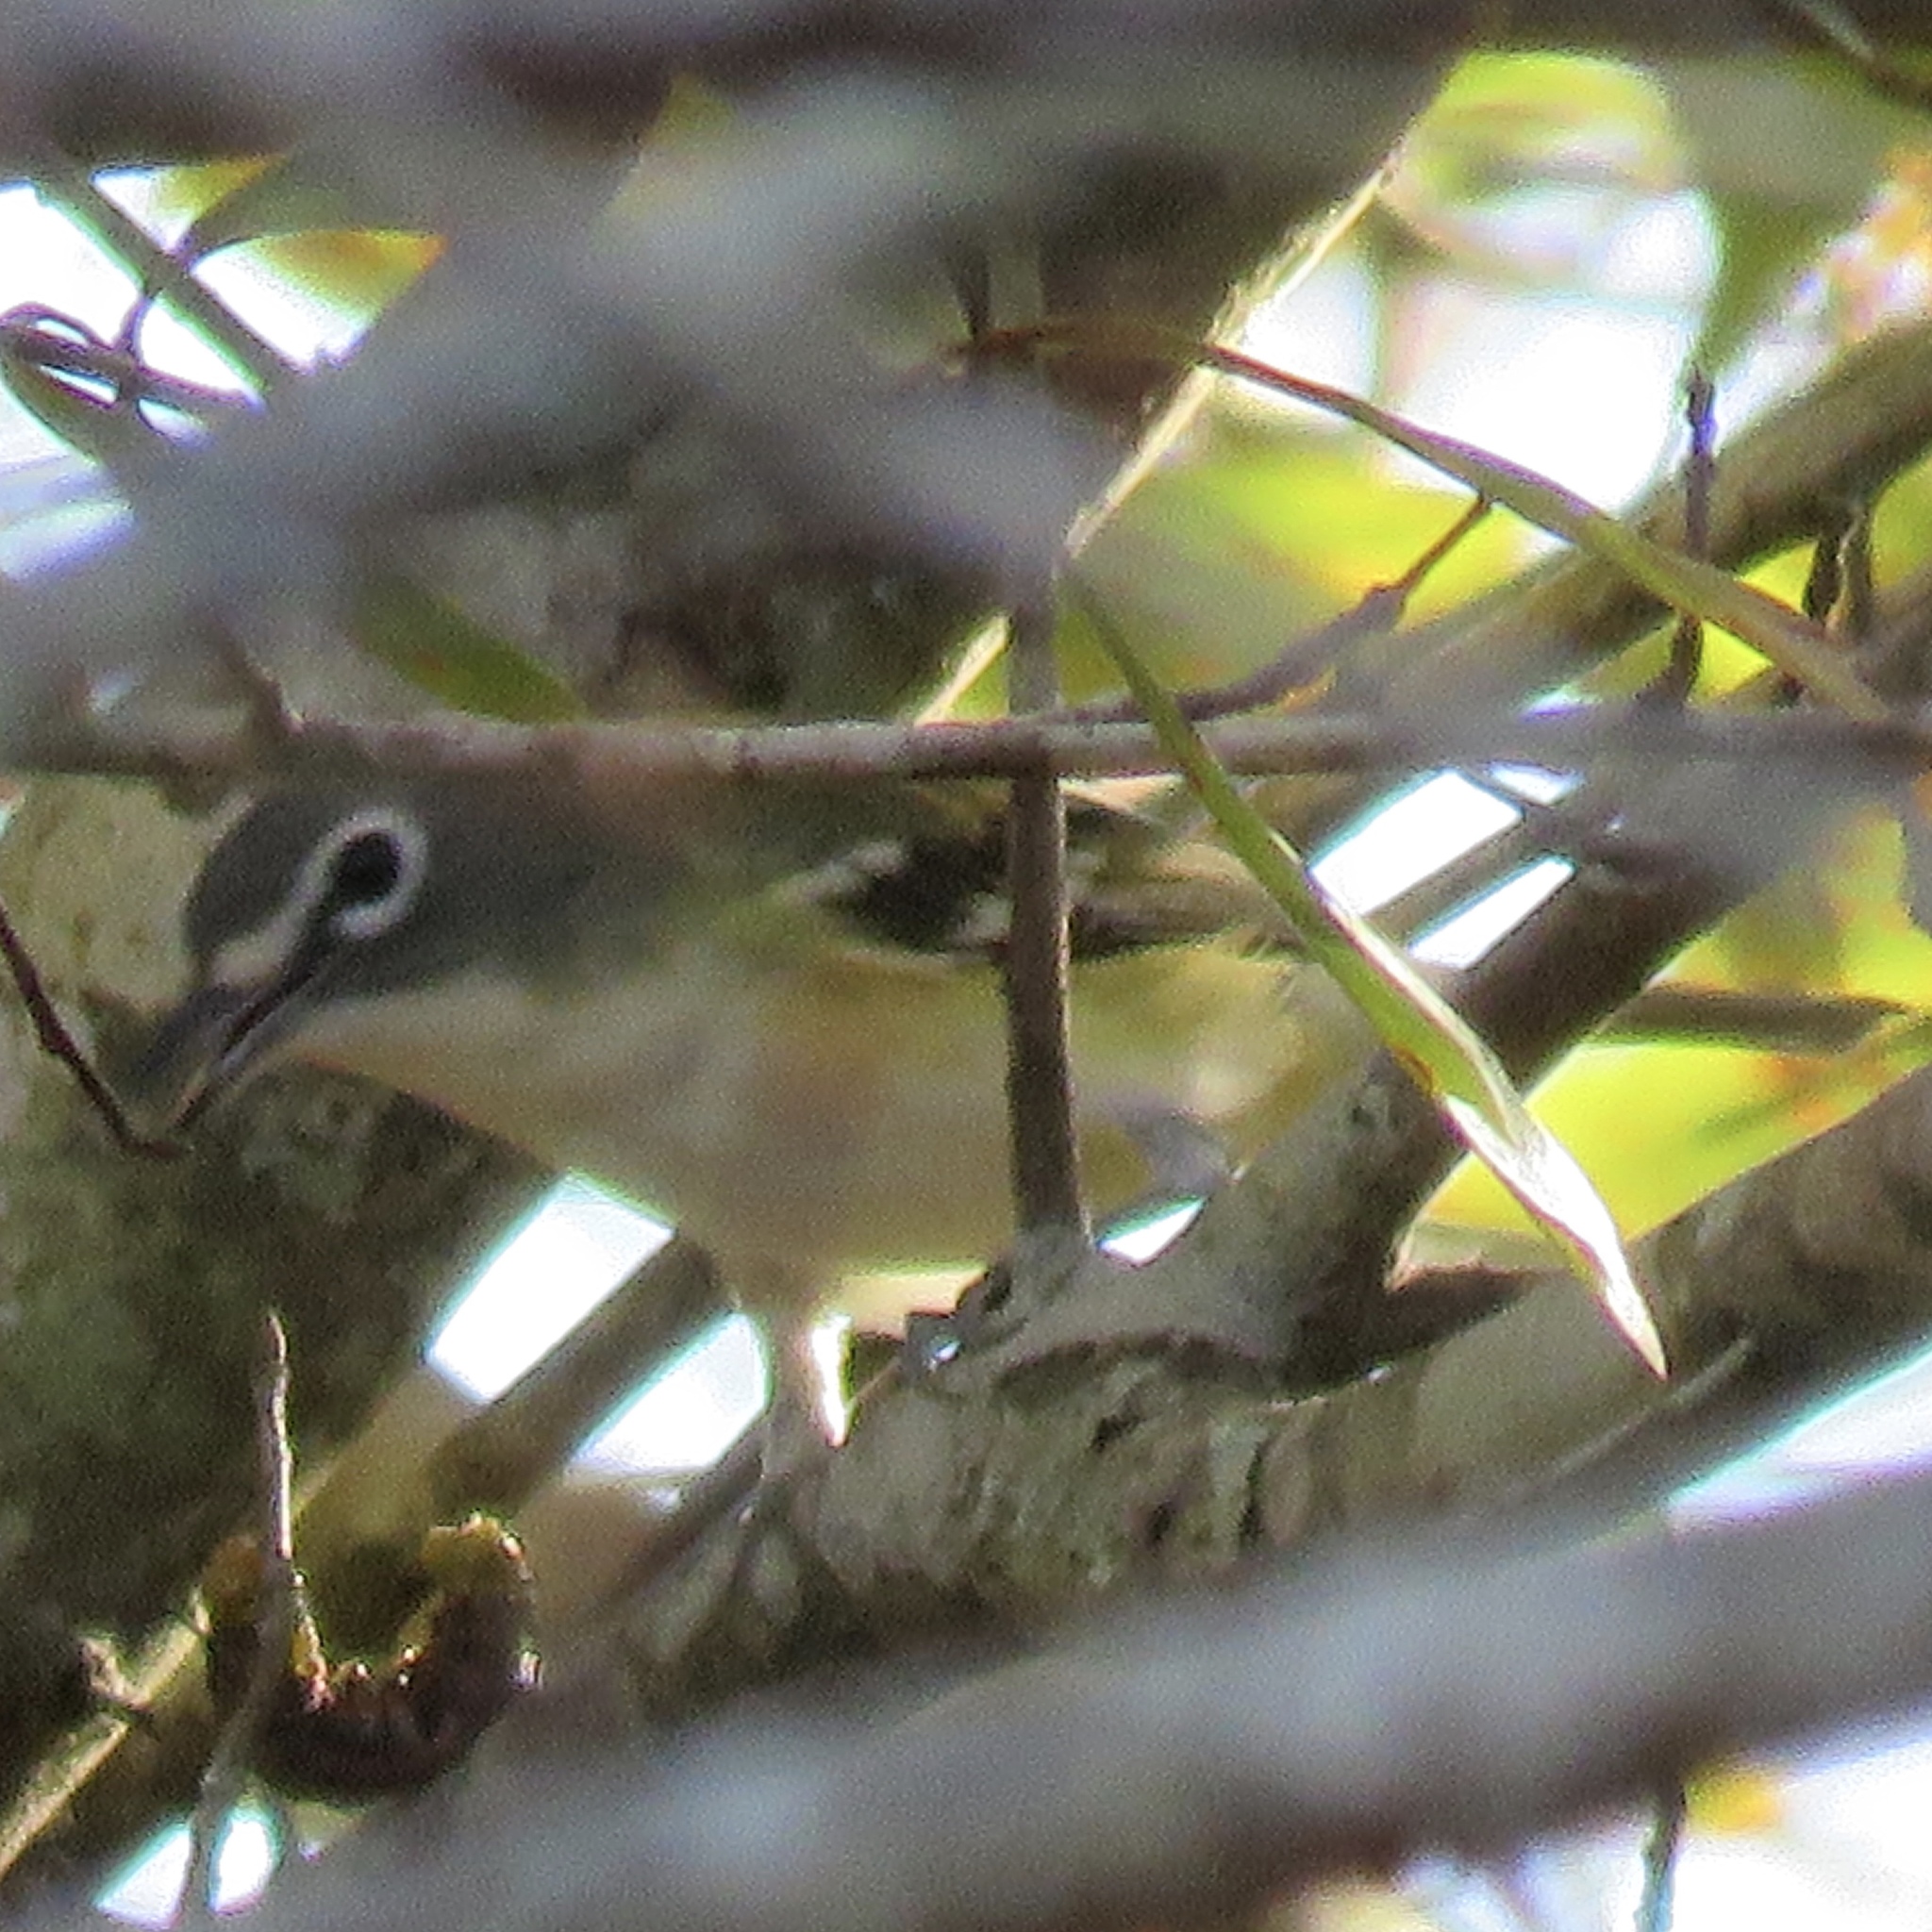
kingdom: Animalia
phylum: Chordata
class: Aves
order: Passeriformes
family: Vireonidae
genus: Vireo
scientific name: Vireo solitarius
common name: Blue-headed vireo
